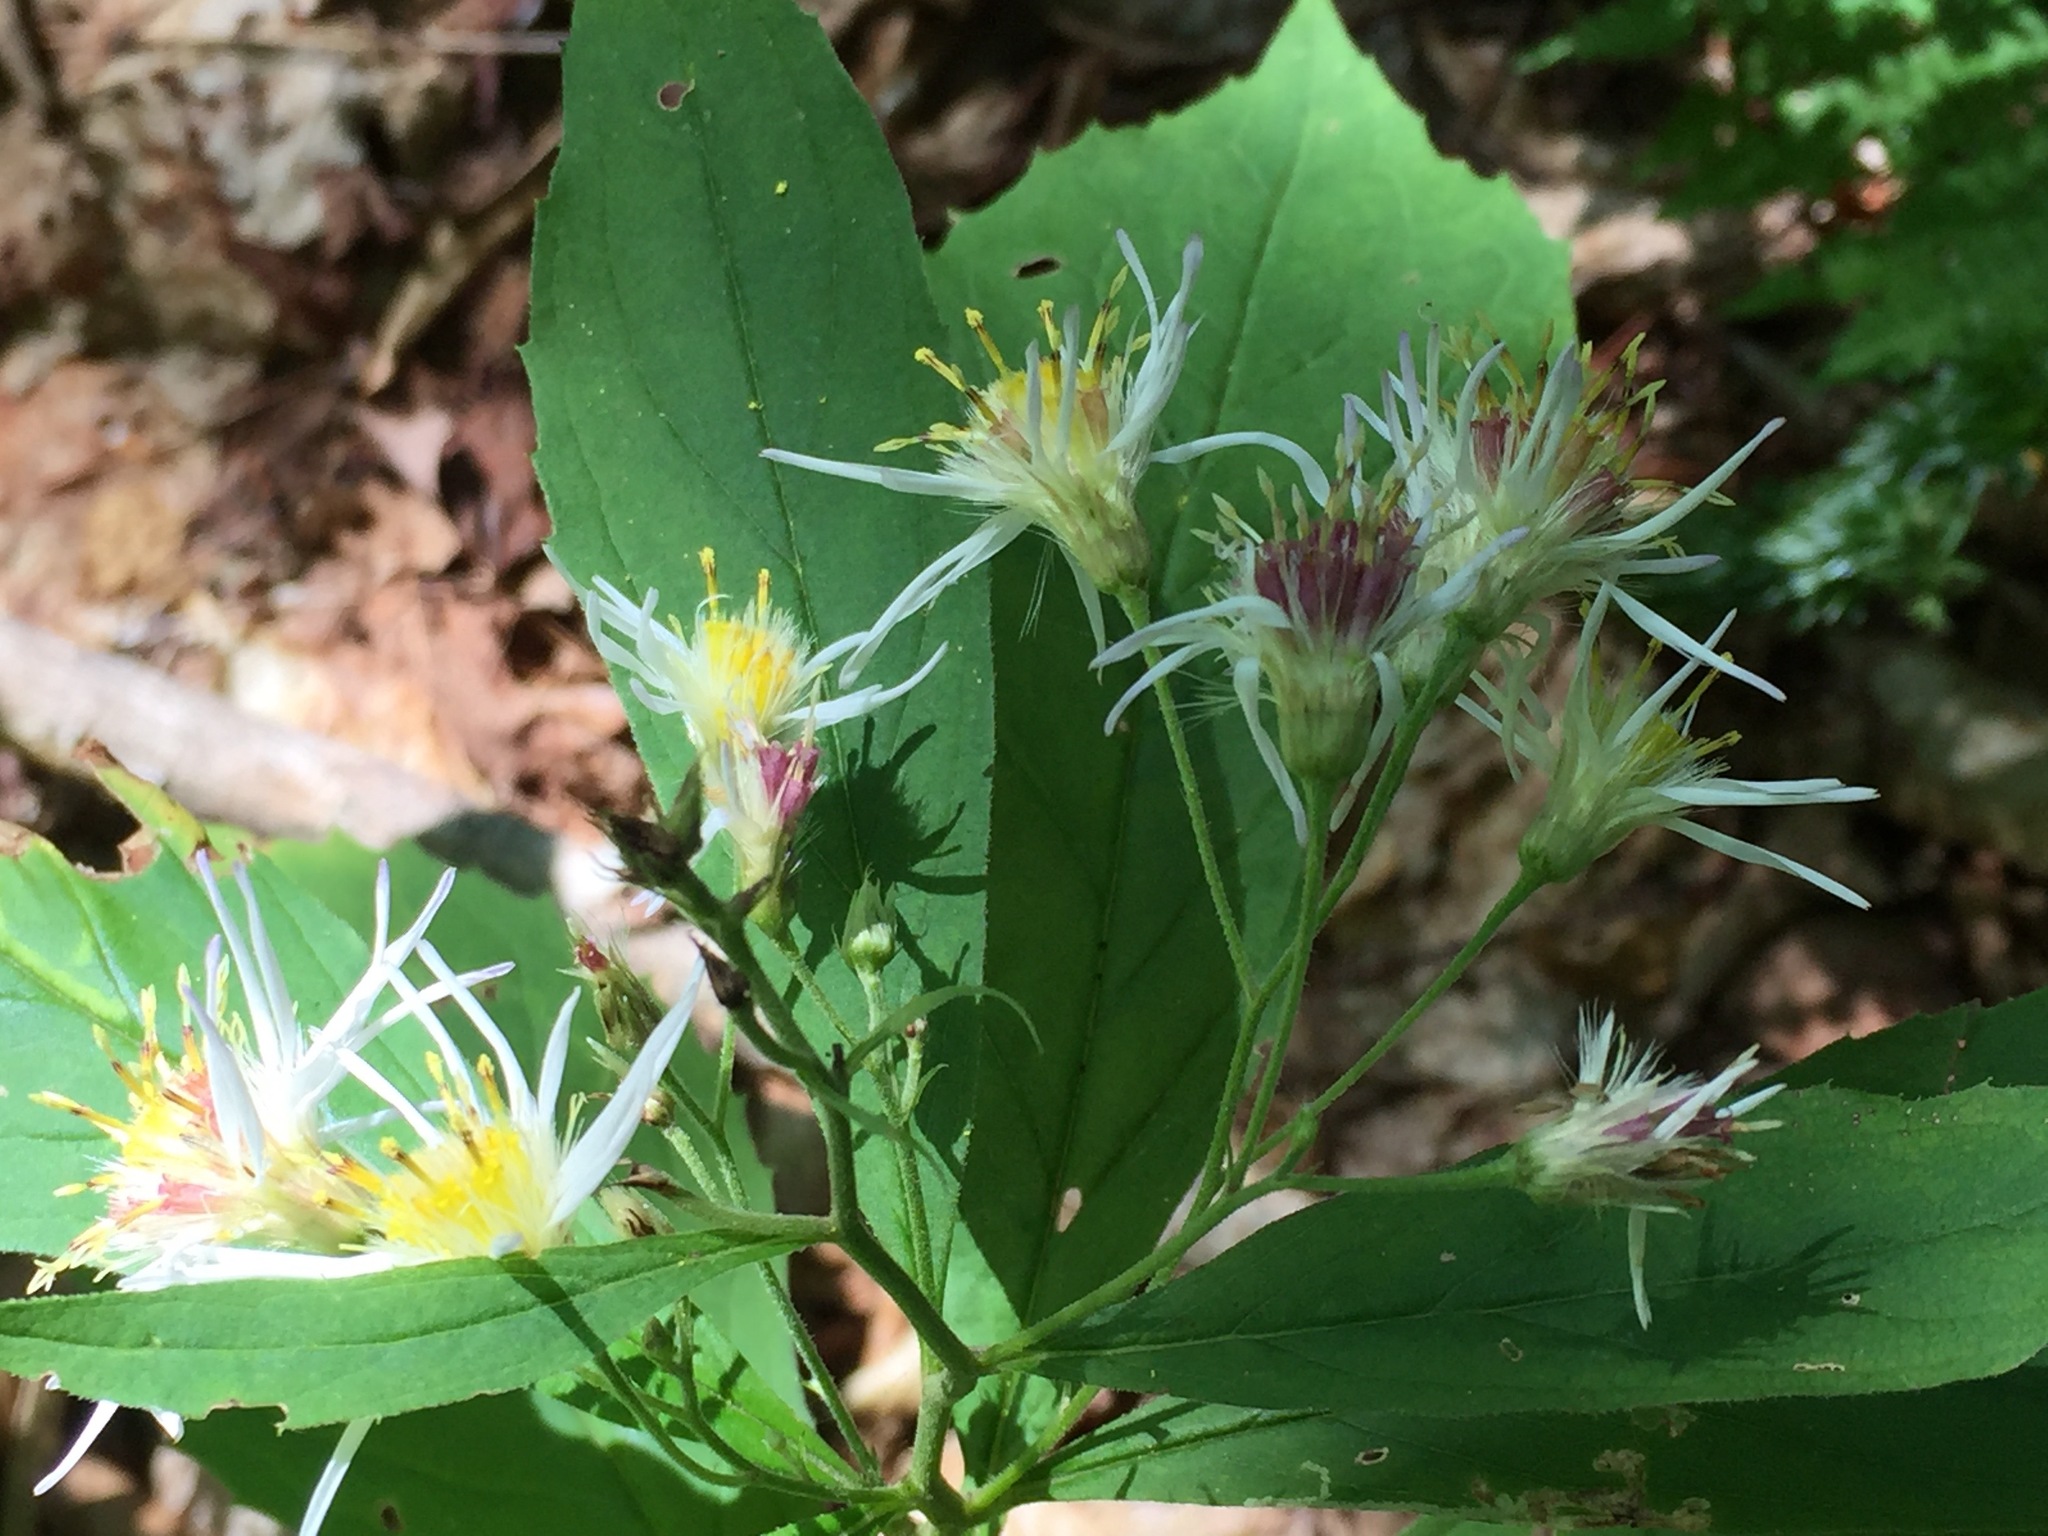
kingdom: Plantae
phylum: Tracheophyta
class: Magnoliopsida
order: Asterales
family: Asteraceae
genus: Oclemena
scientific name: Oclemena acuminata
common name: Mountain aster
